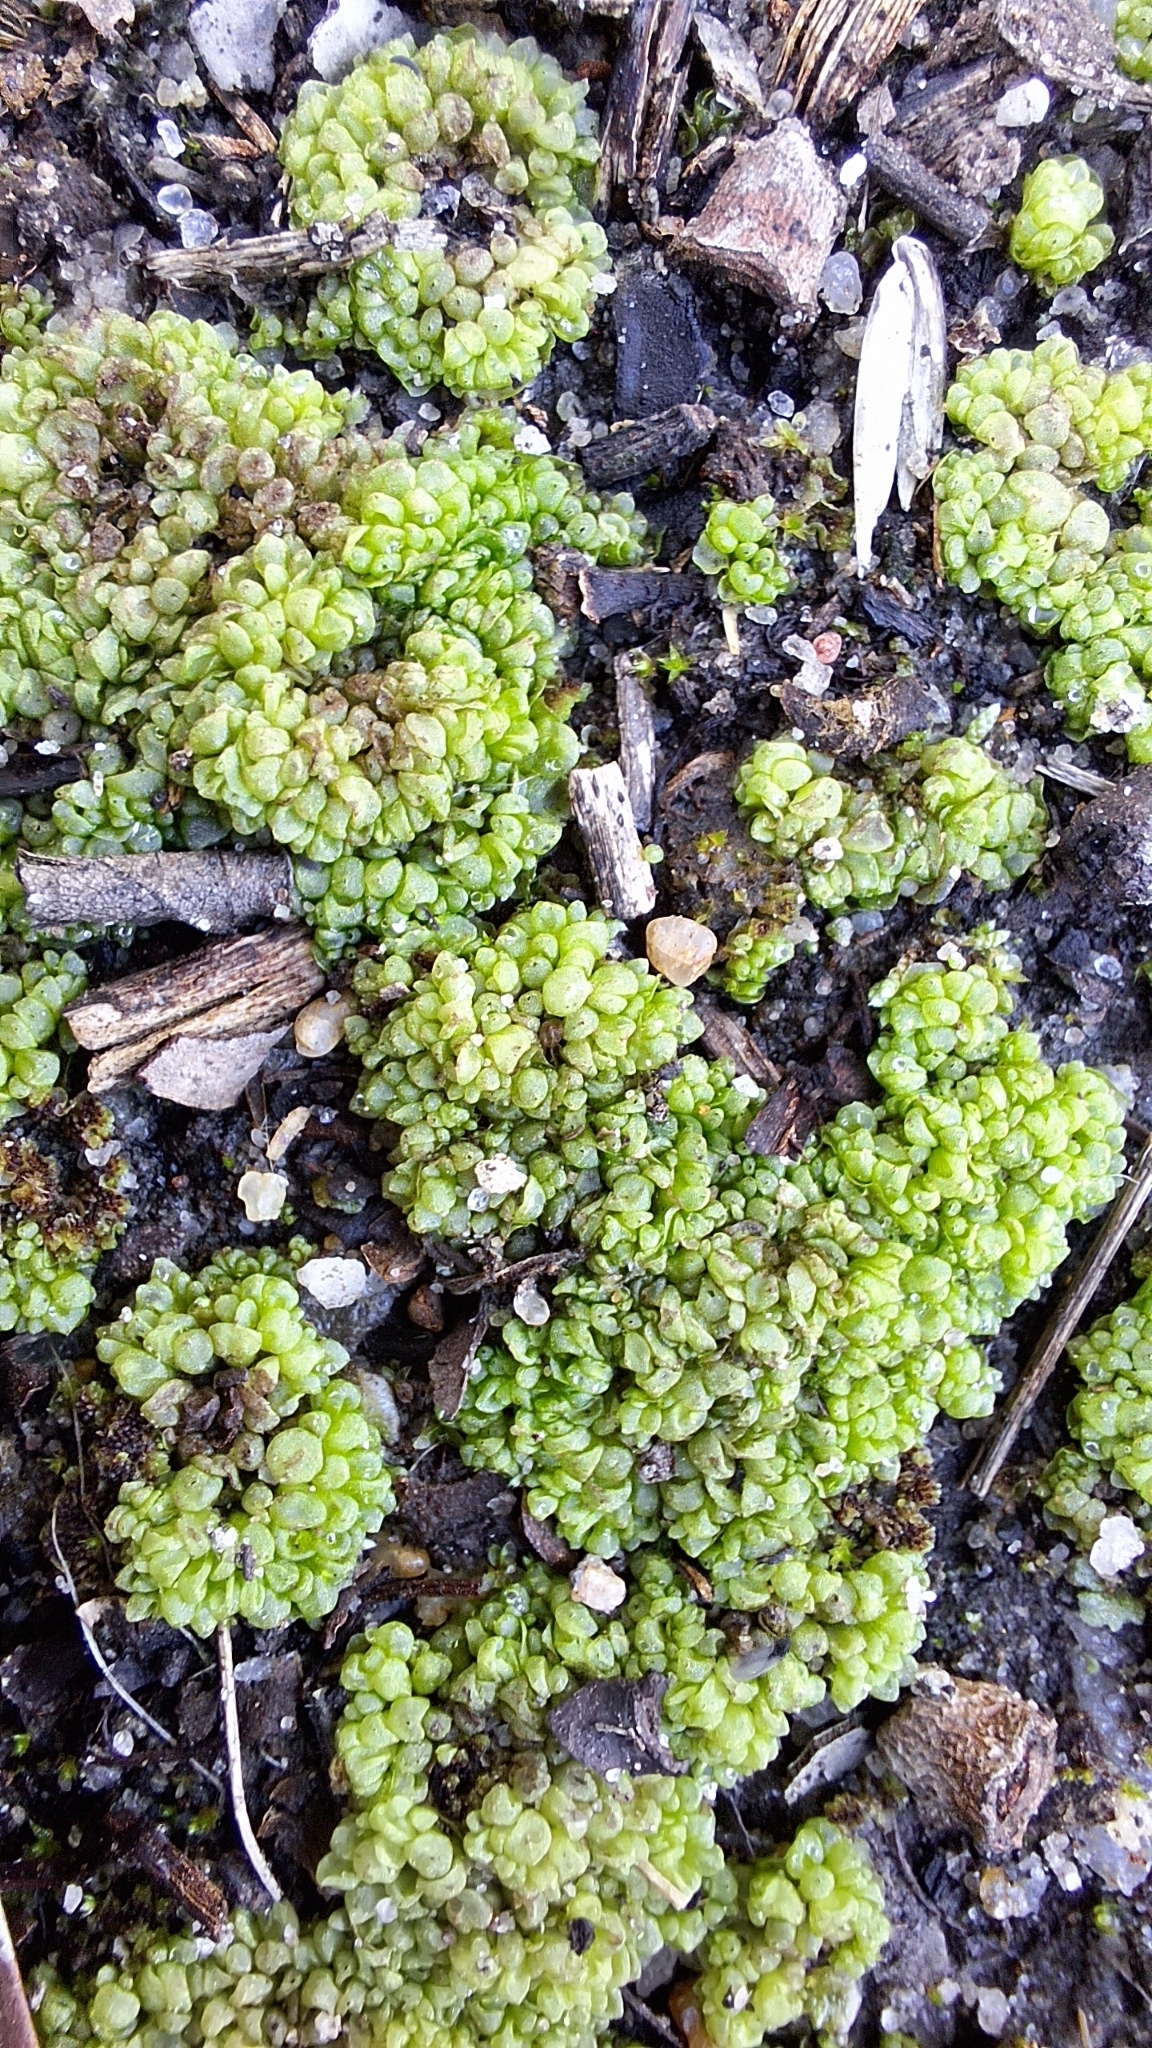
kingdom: Plantae
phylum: Marchantiophyta
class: Marchantiopsida
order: Sphaerocarpales
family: Sphaerocarpaceae
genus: Sphaerocarpos
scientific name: Sphaerocarpos texanus
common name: Texas balloonwort
